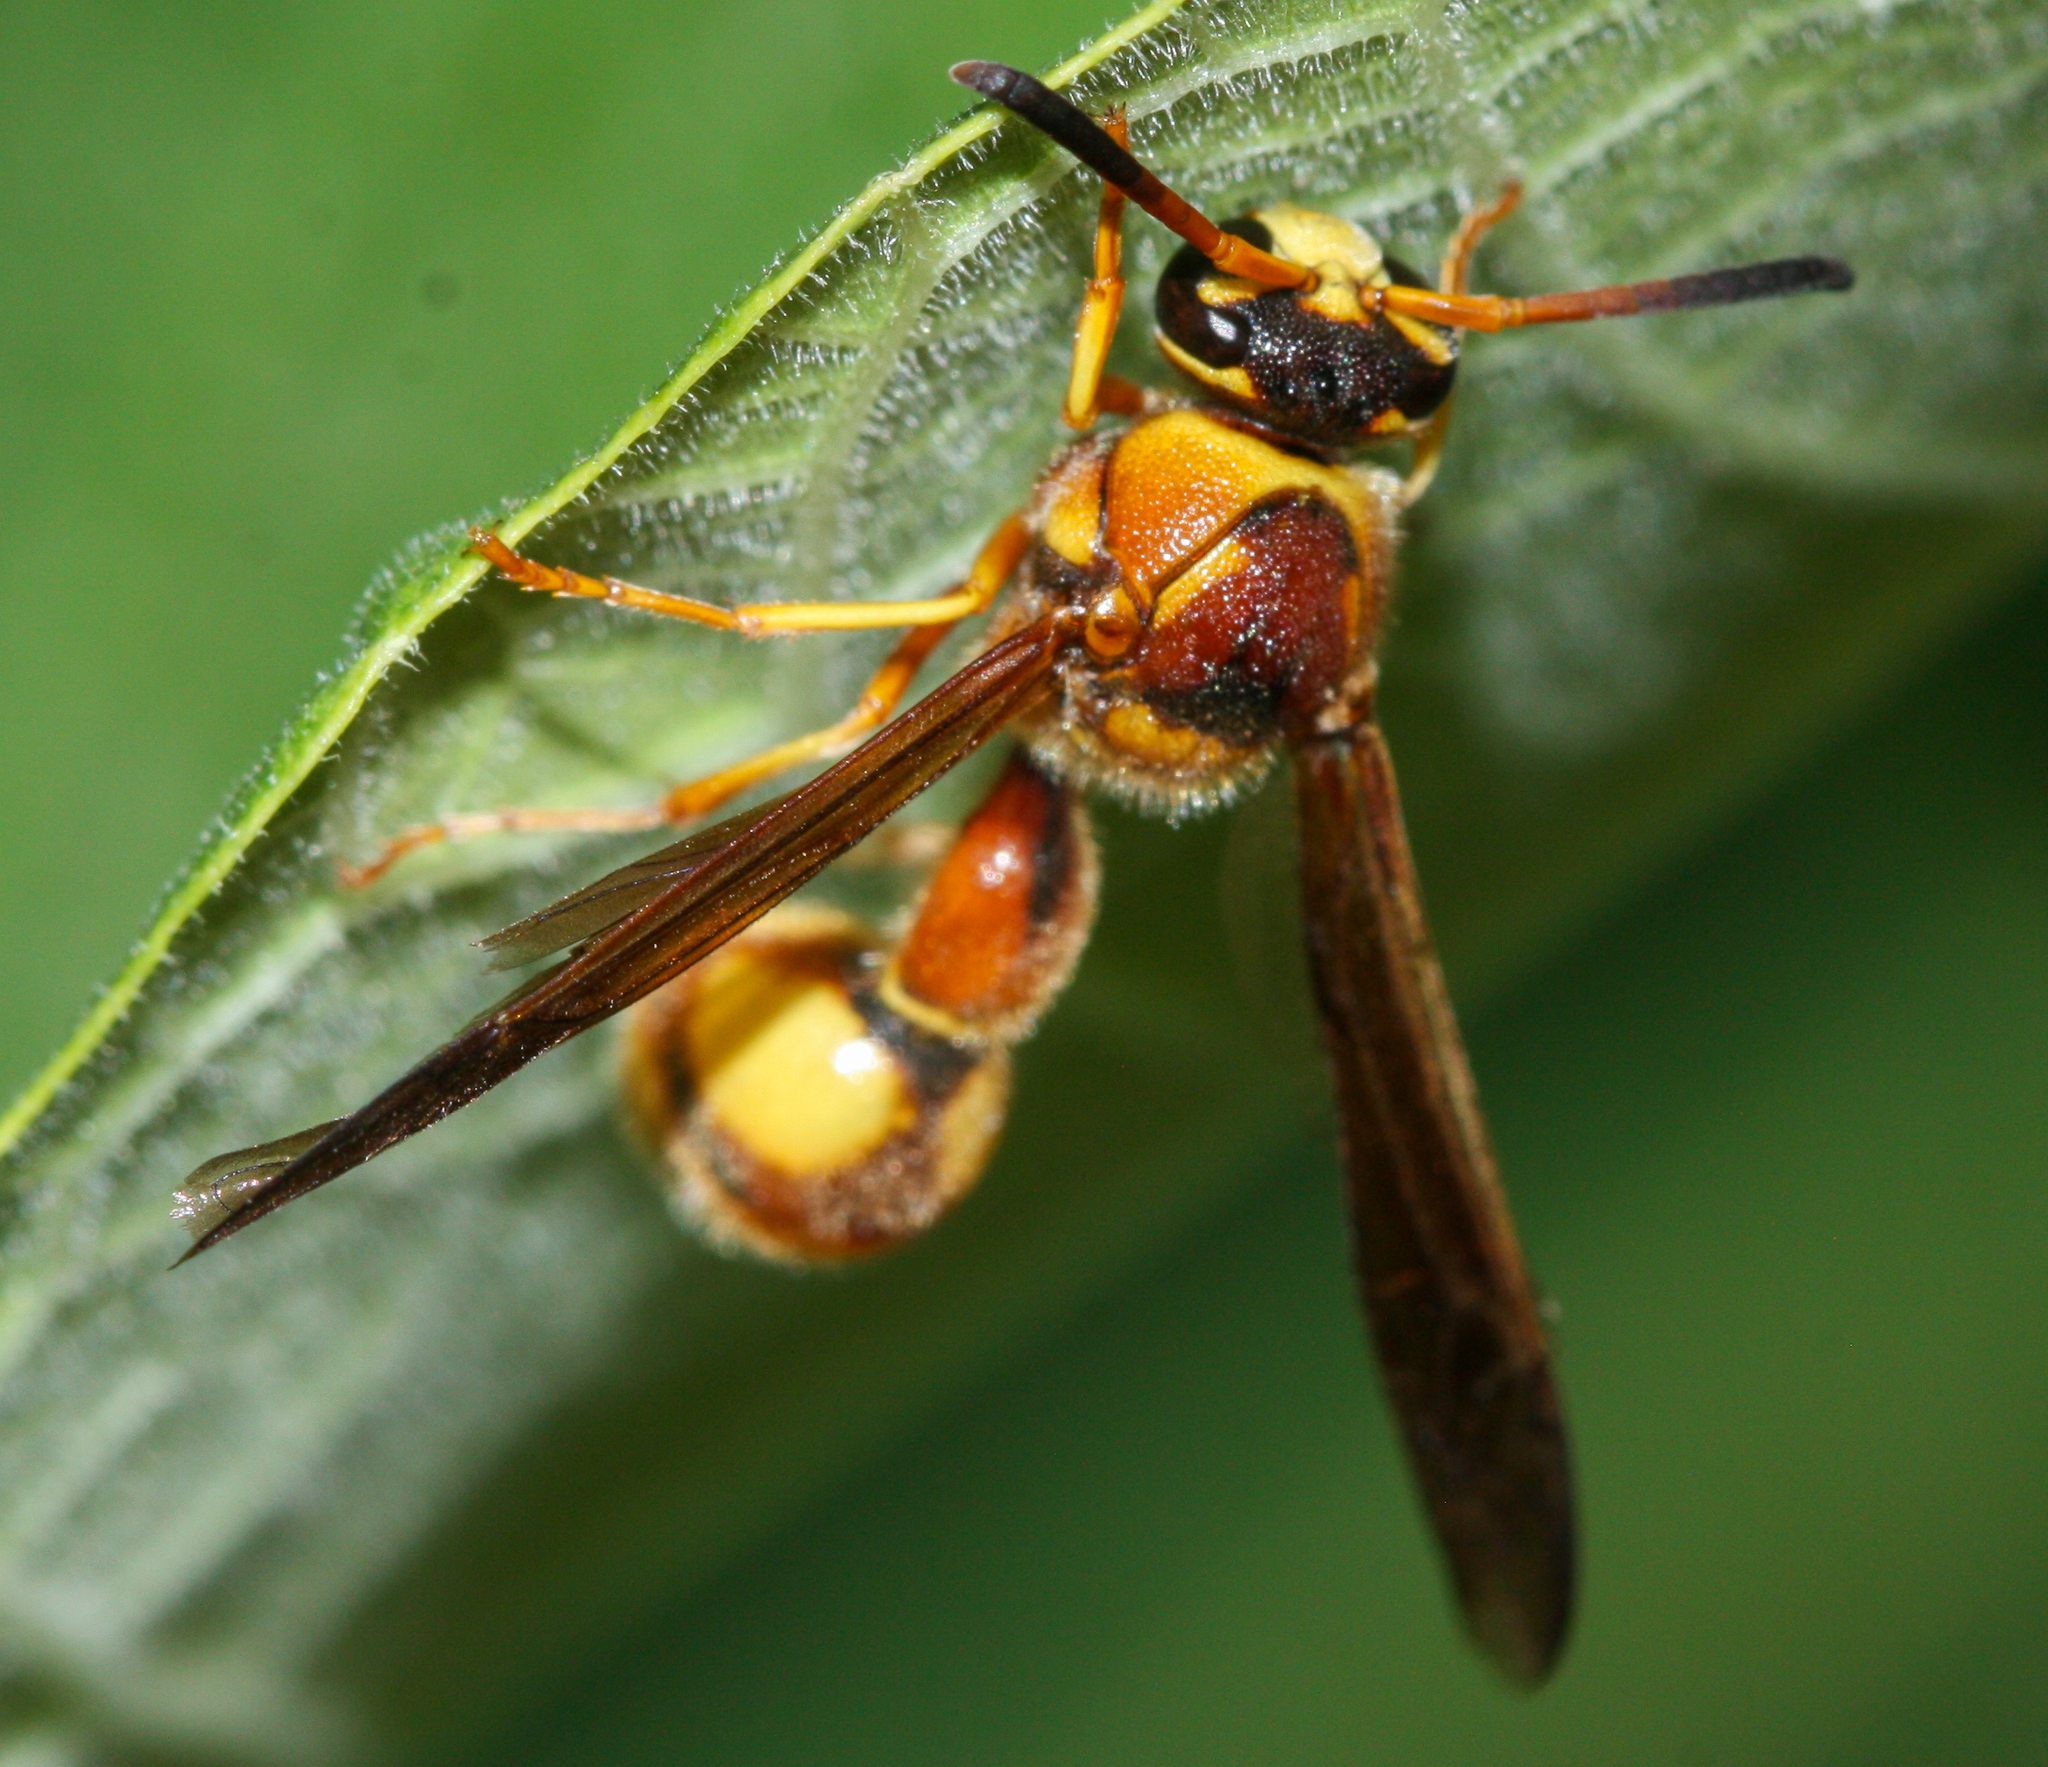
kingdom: Animalia
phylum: Arthropoda
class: Insecta
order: Hymenoptera
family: Vespidae
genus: Eumenes
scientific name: Eumenes bollii
